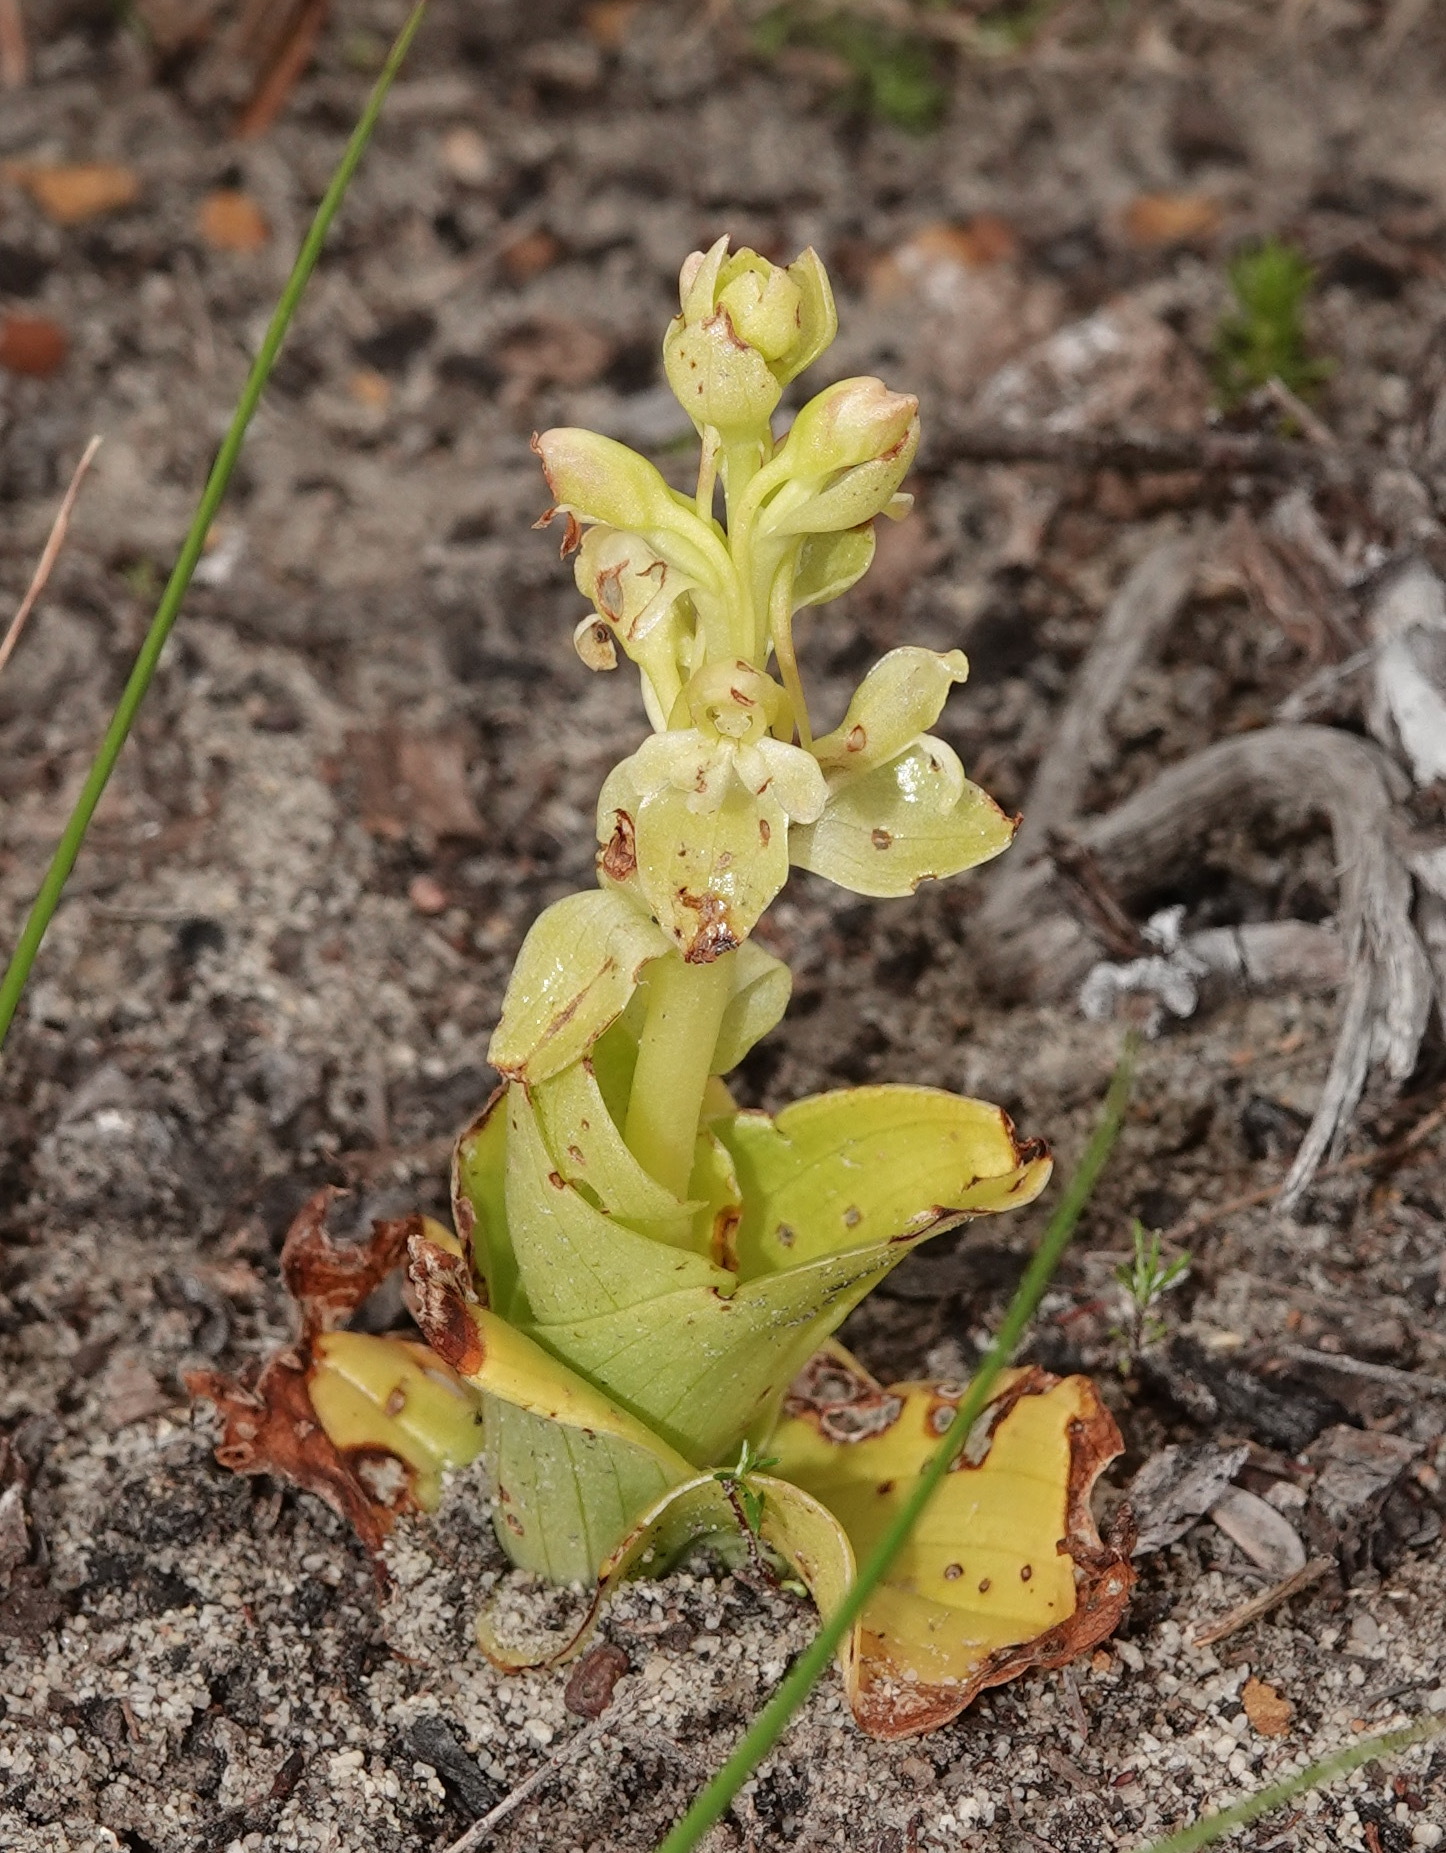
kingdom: Plantae
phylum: Tracheophyta
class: Liliopsida
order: Asparagales
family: Orchidaceae
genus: Satyrium
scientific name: Satyrium odorum
